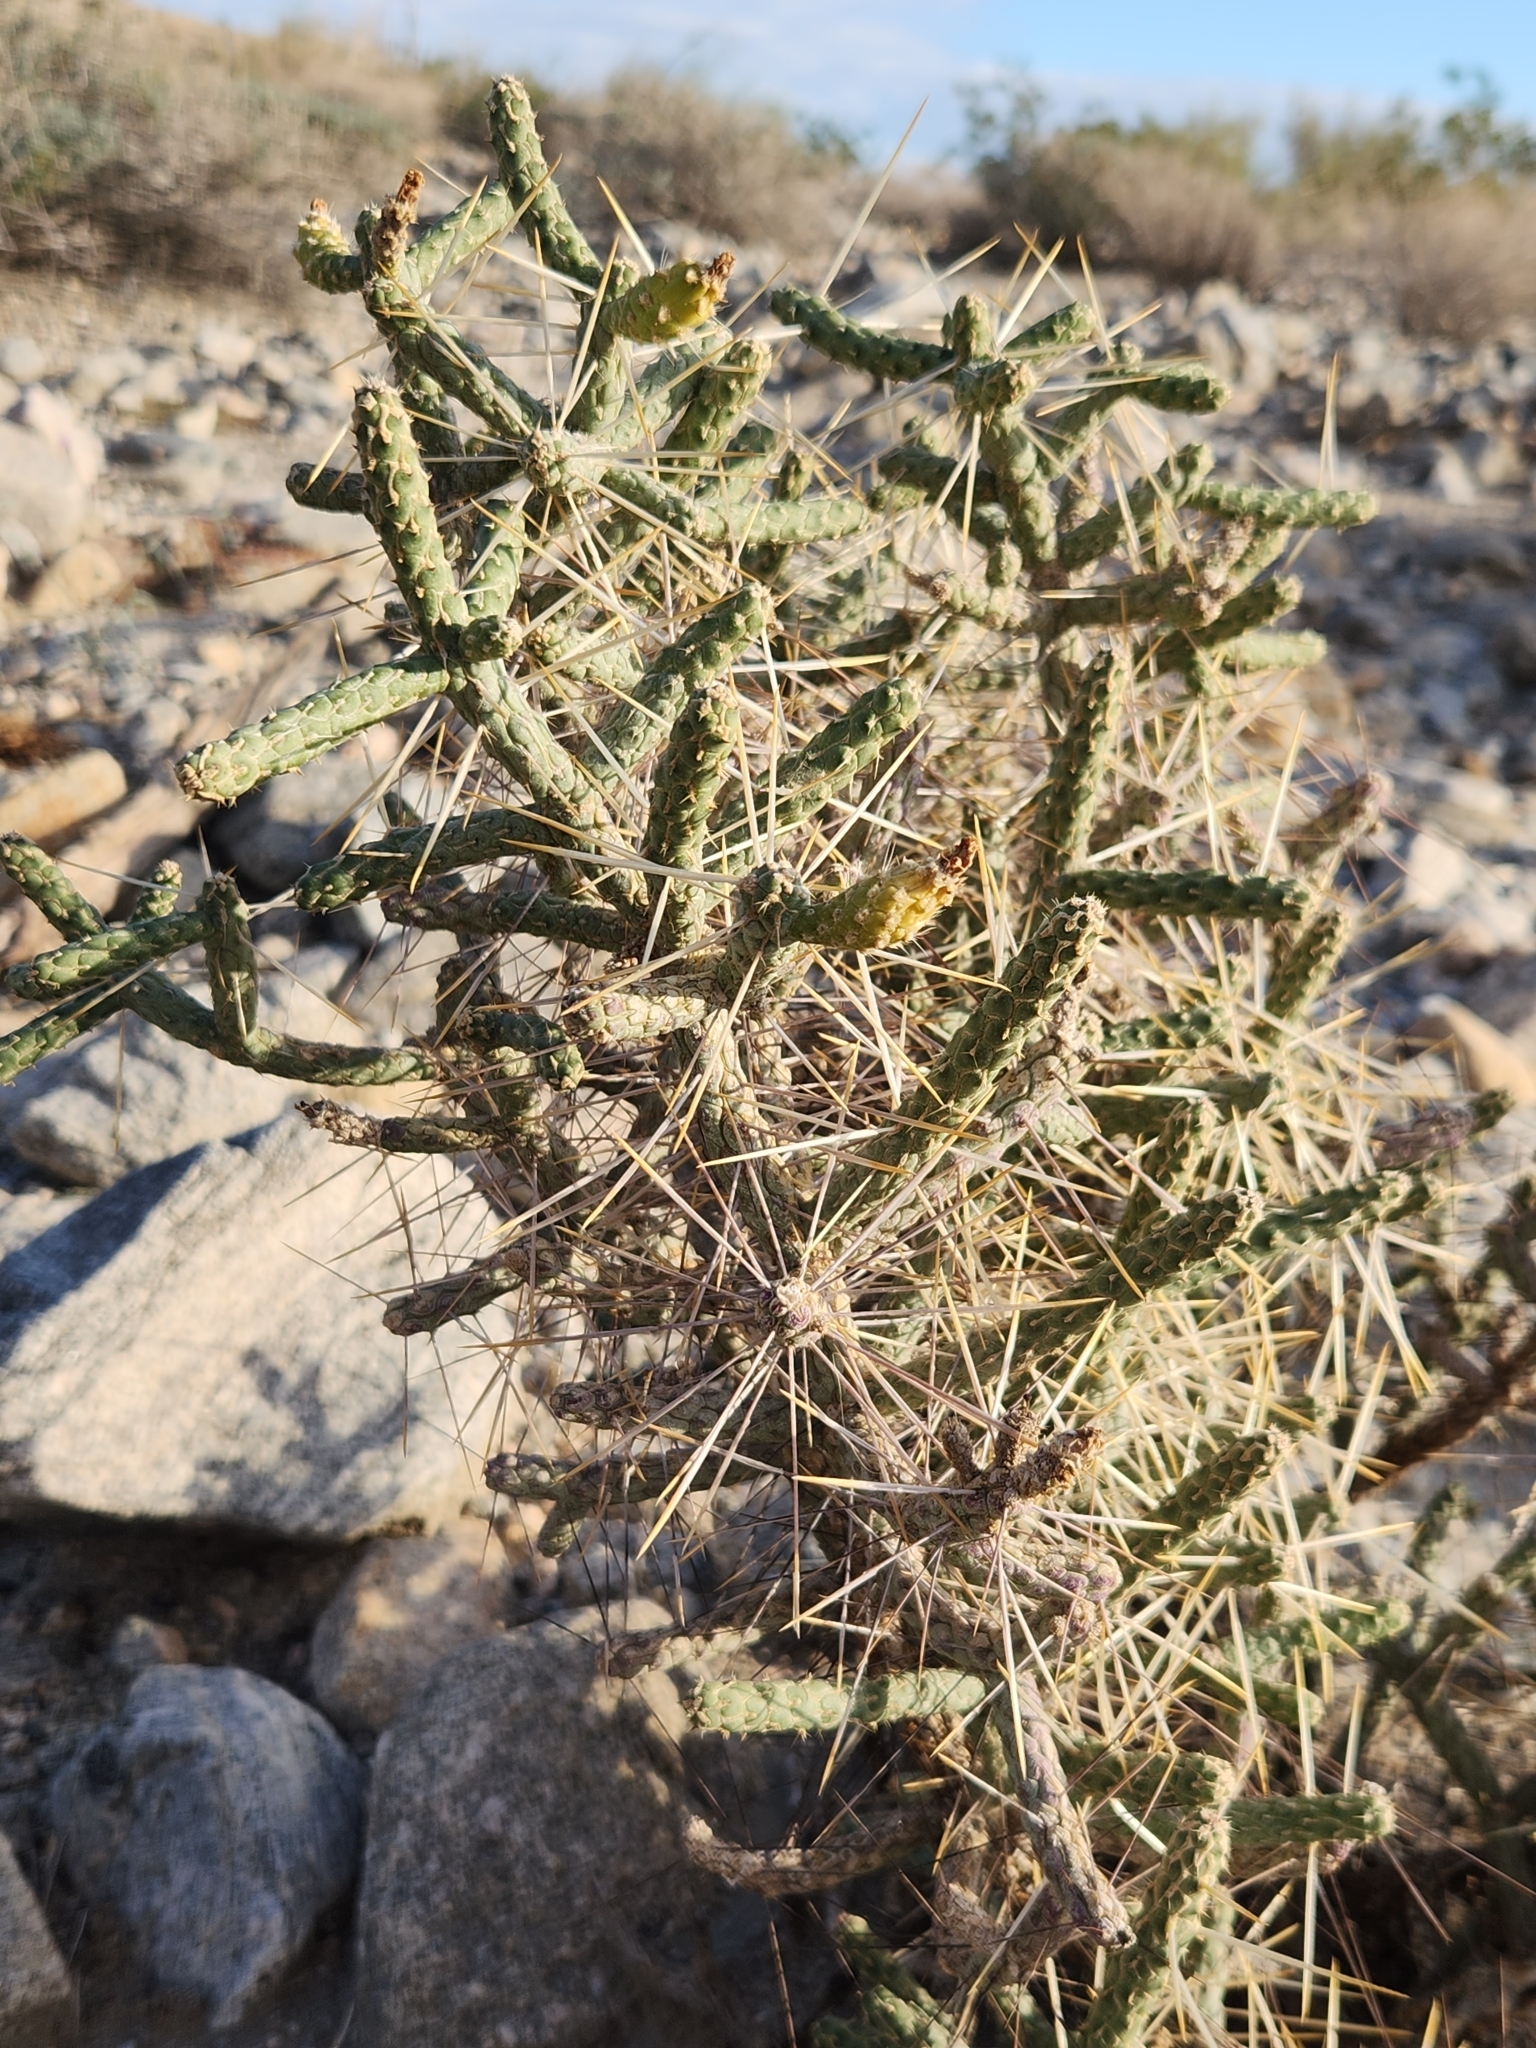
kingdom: Plantae
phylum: Tracheophyta
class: Magnoliopsida
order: Caryophyllales
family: Cactaceae
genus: Cylindropuntia
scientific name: Cylindropuntia ramosissima
